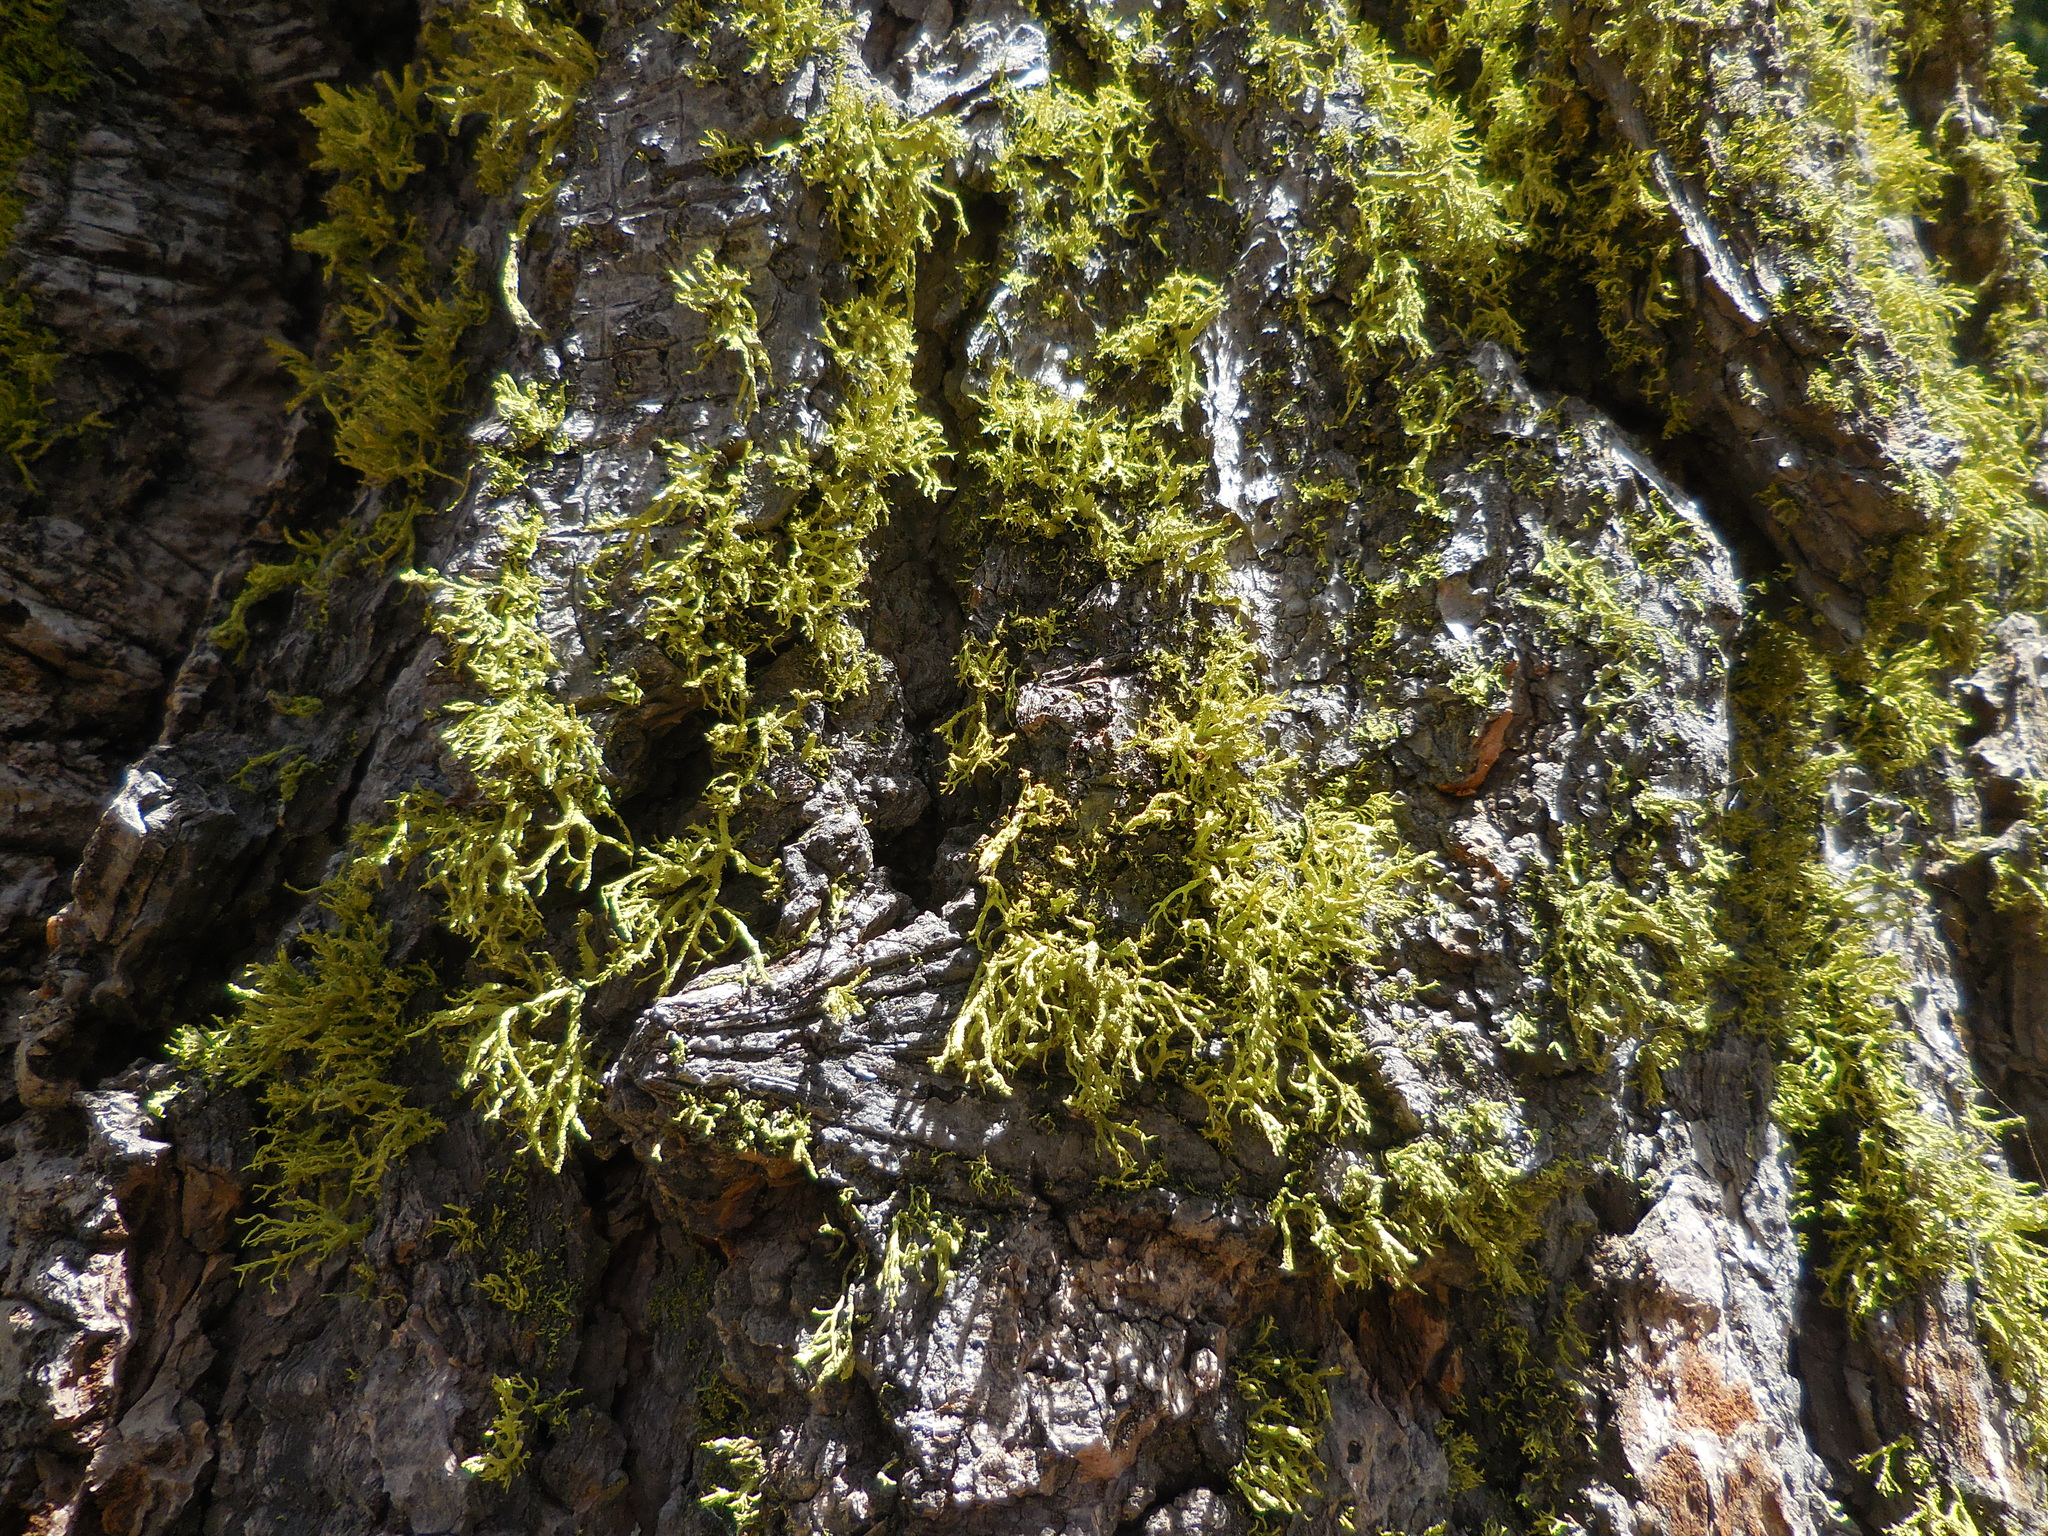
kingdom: Fungi
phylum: Ascomycota
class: Lecanoromycetes
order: Lecanorales
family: Parmeliaceae
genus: Letharia
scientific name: Letharia vulpina
